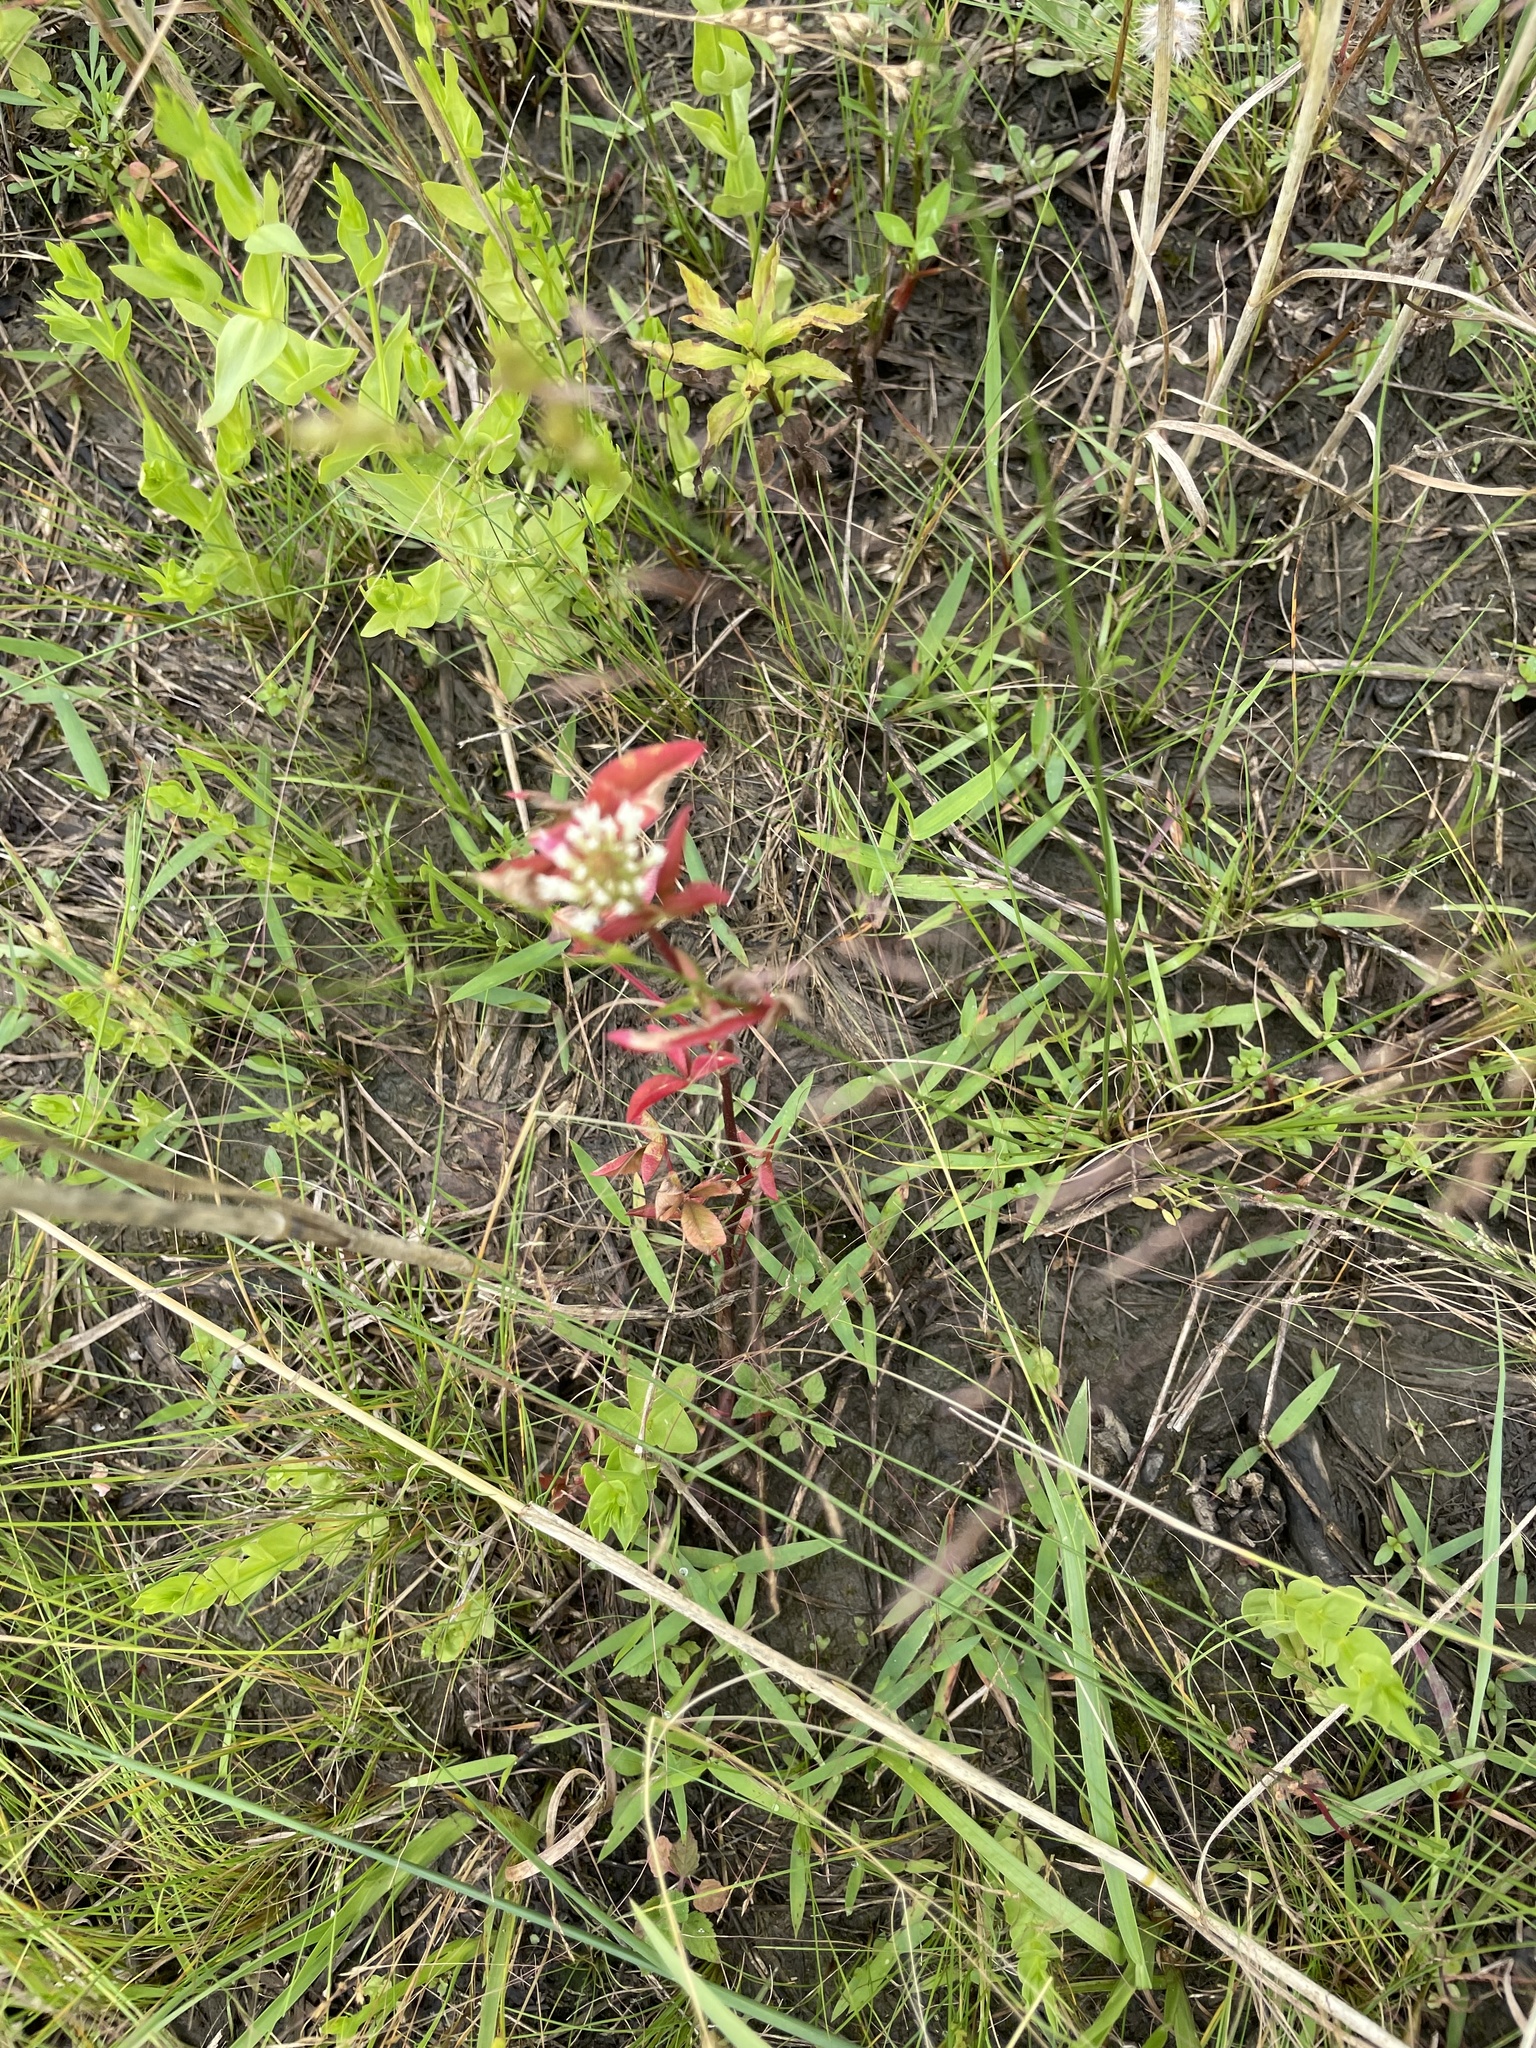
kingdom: Plantae
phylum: Tracheophyta
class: Magnoliopsida
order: Fabales
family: Fabaceae
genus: Trifolium
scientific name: Trifolium vesiculosum
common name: Arrowleaf clover
